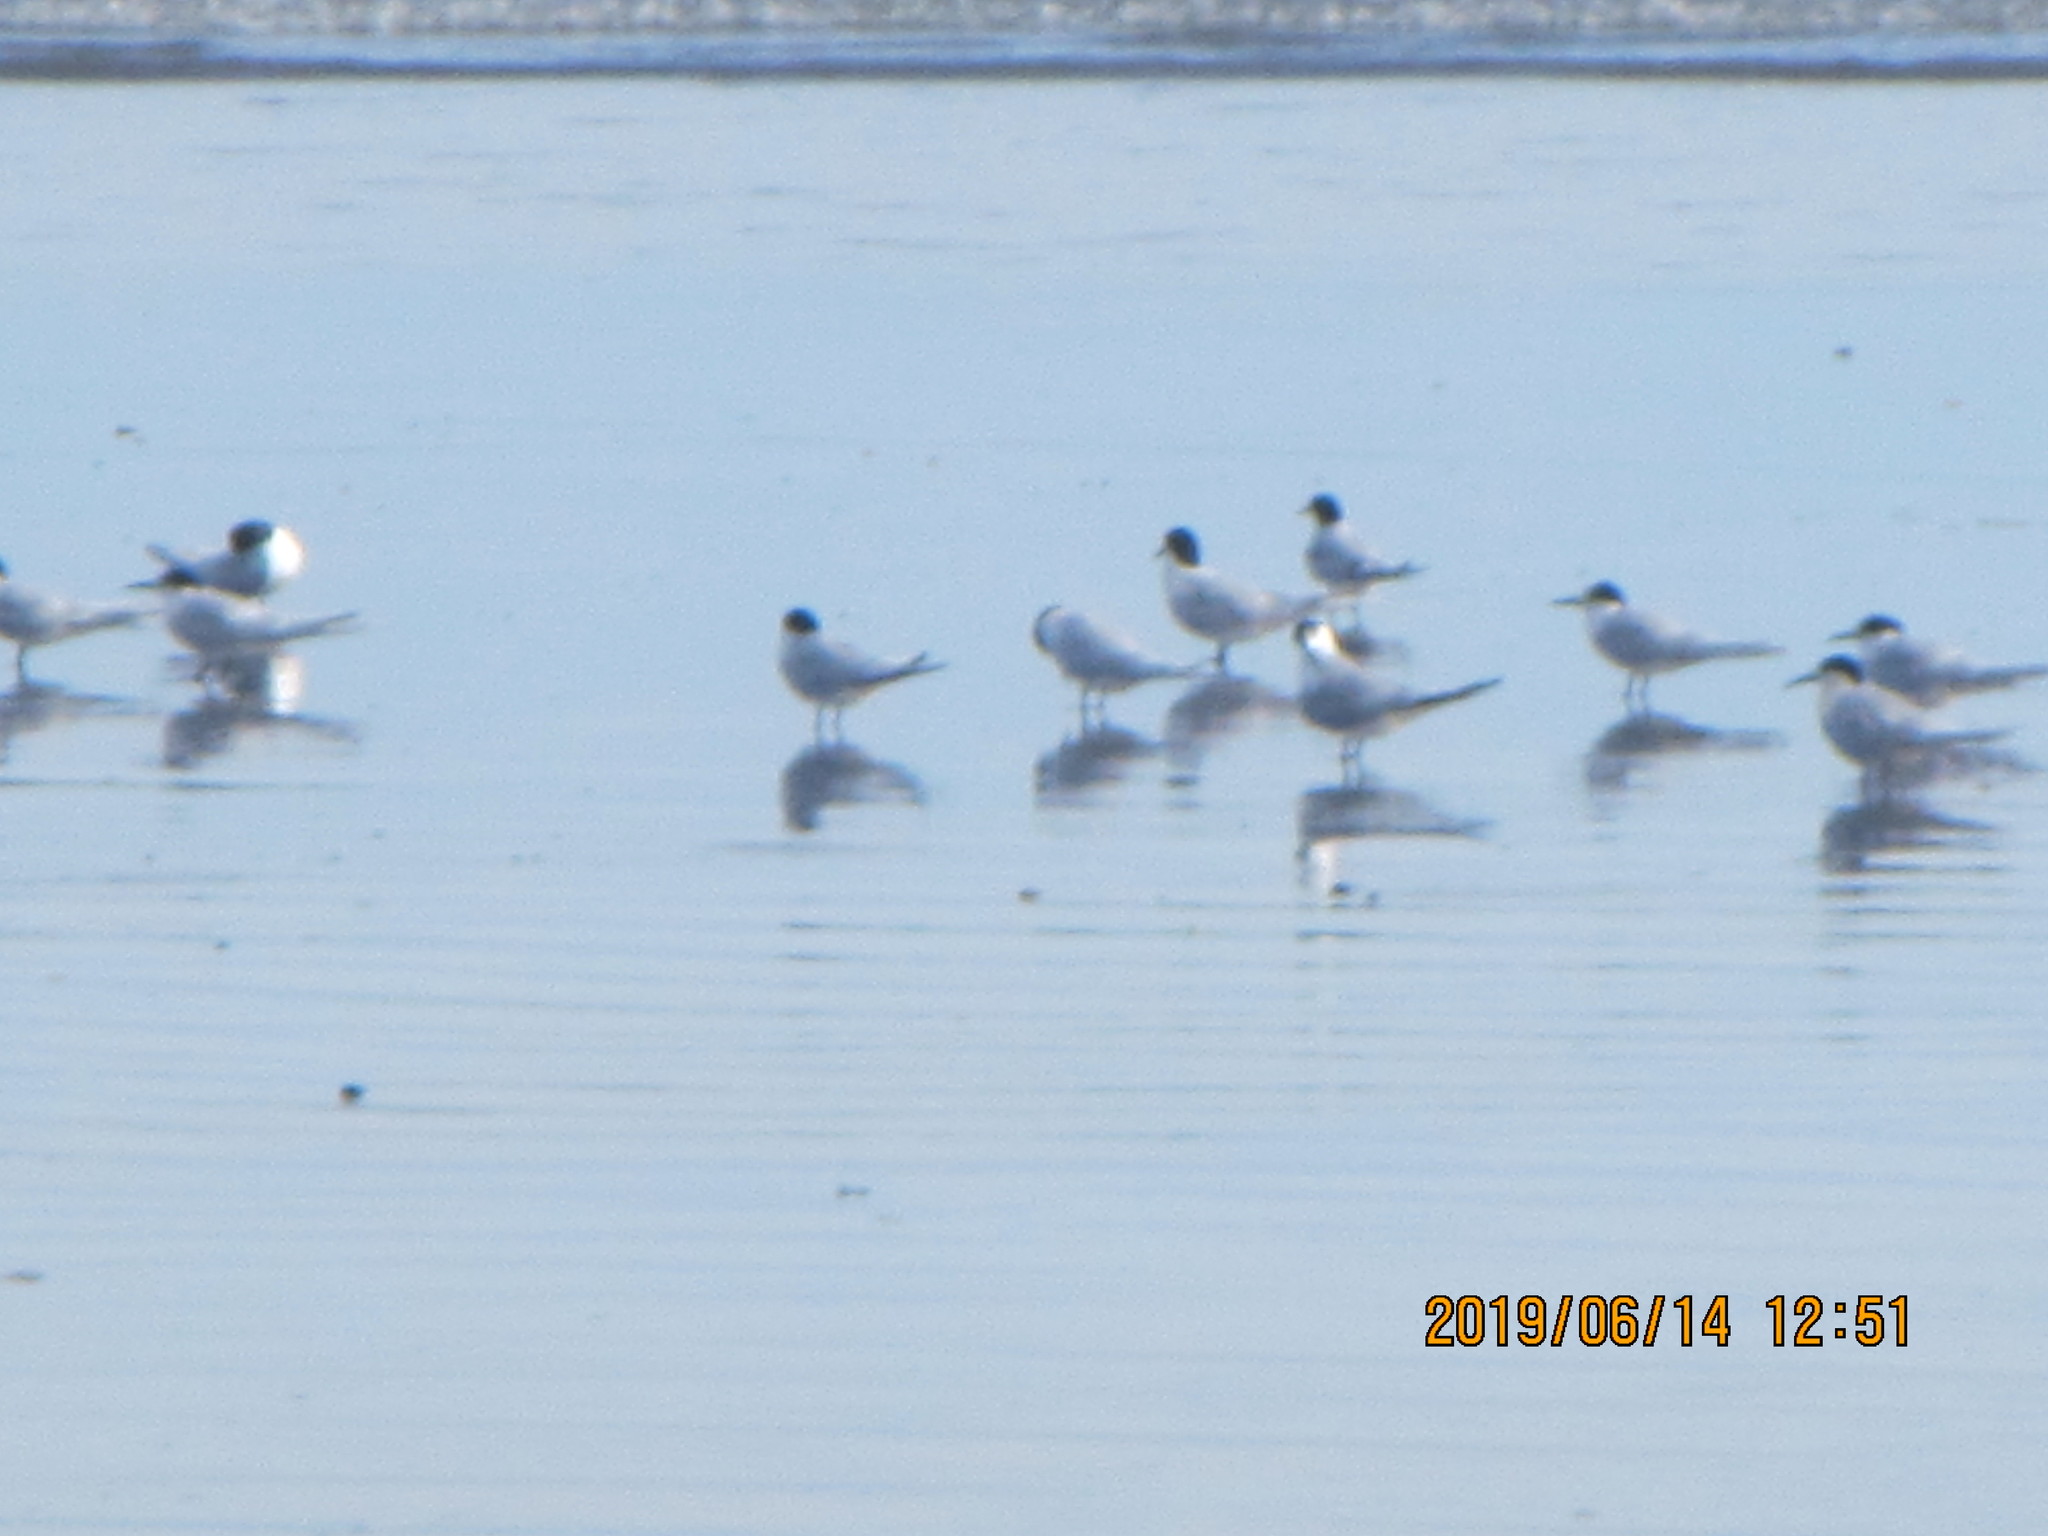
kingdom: Animalia
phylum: Chordata
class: Aves
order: Charadriiformes
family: Laridae
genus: Sterna
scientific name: Sterna striata
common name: White-fronted tern
